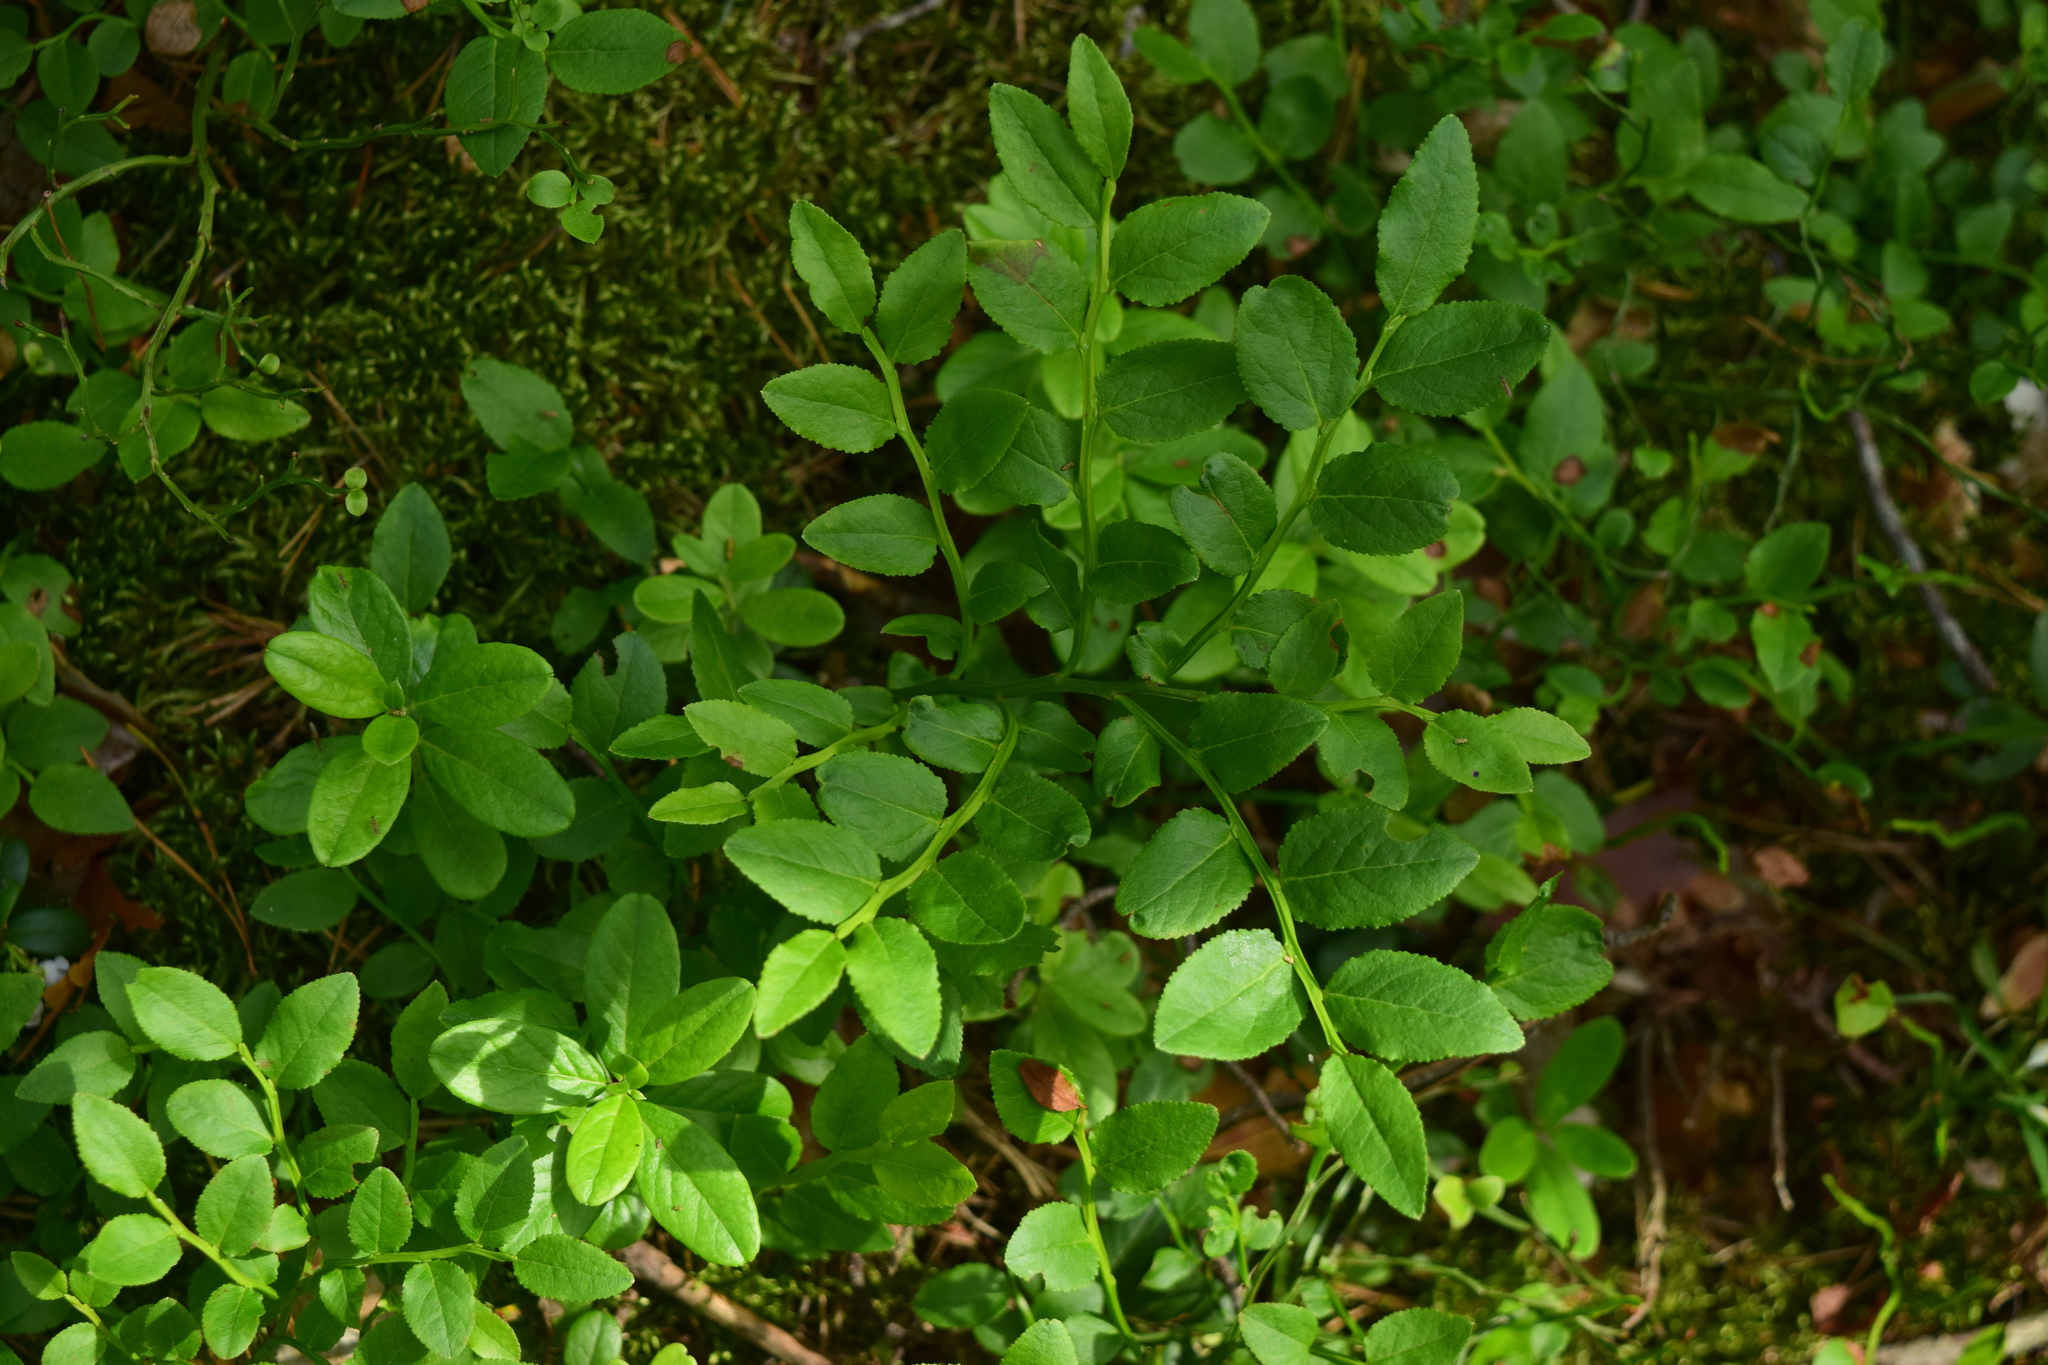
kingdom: Plantae
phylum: Tracheophyta
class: Magnoliopsida
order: Ericales
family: Ericaceae
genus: Vaccinium
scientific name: Vaccinium myrtillus
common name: Bilberry
